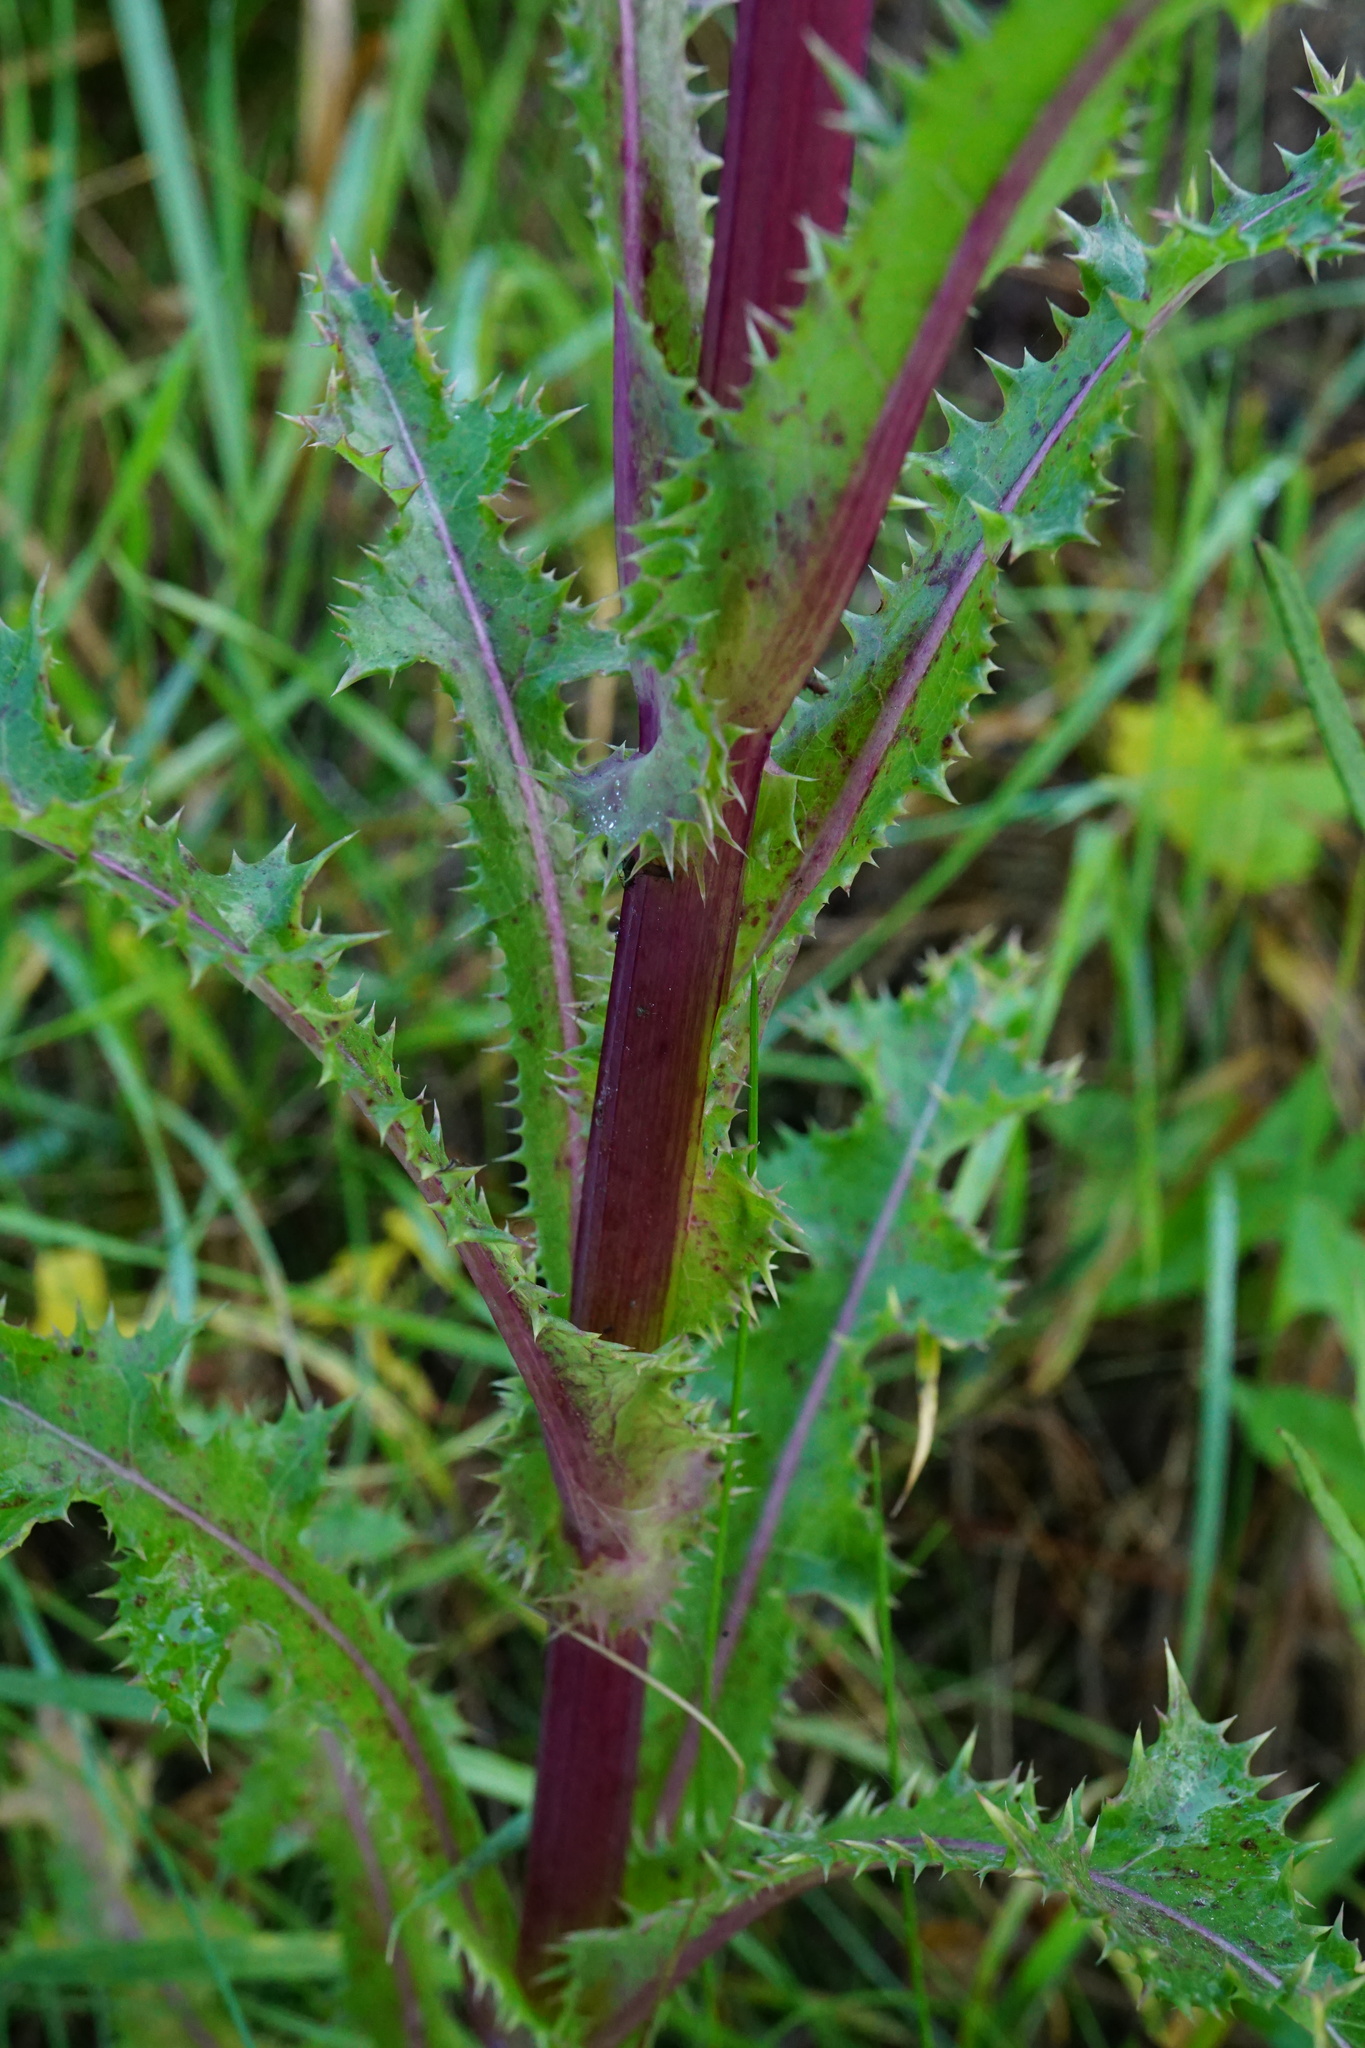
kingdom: Plantae
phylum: Tracheophyta
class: Magnoliopsida
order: Asterales
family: Asteraceae
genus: Sonchus
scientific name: Sonchus asper
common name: Prickly sow-thistle
